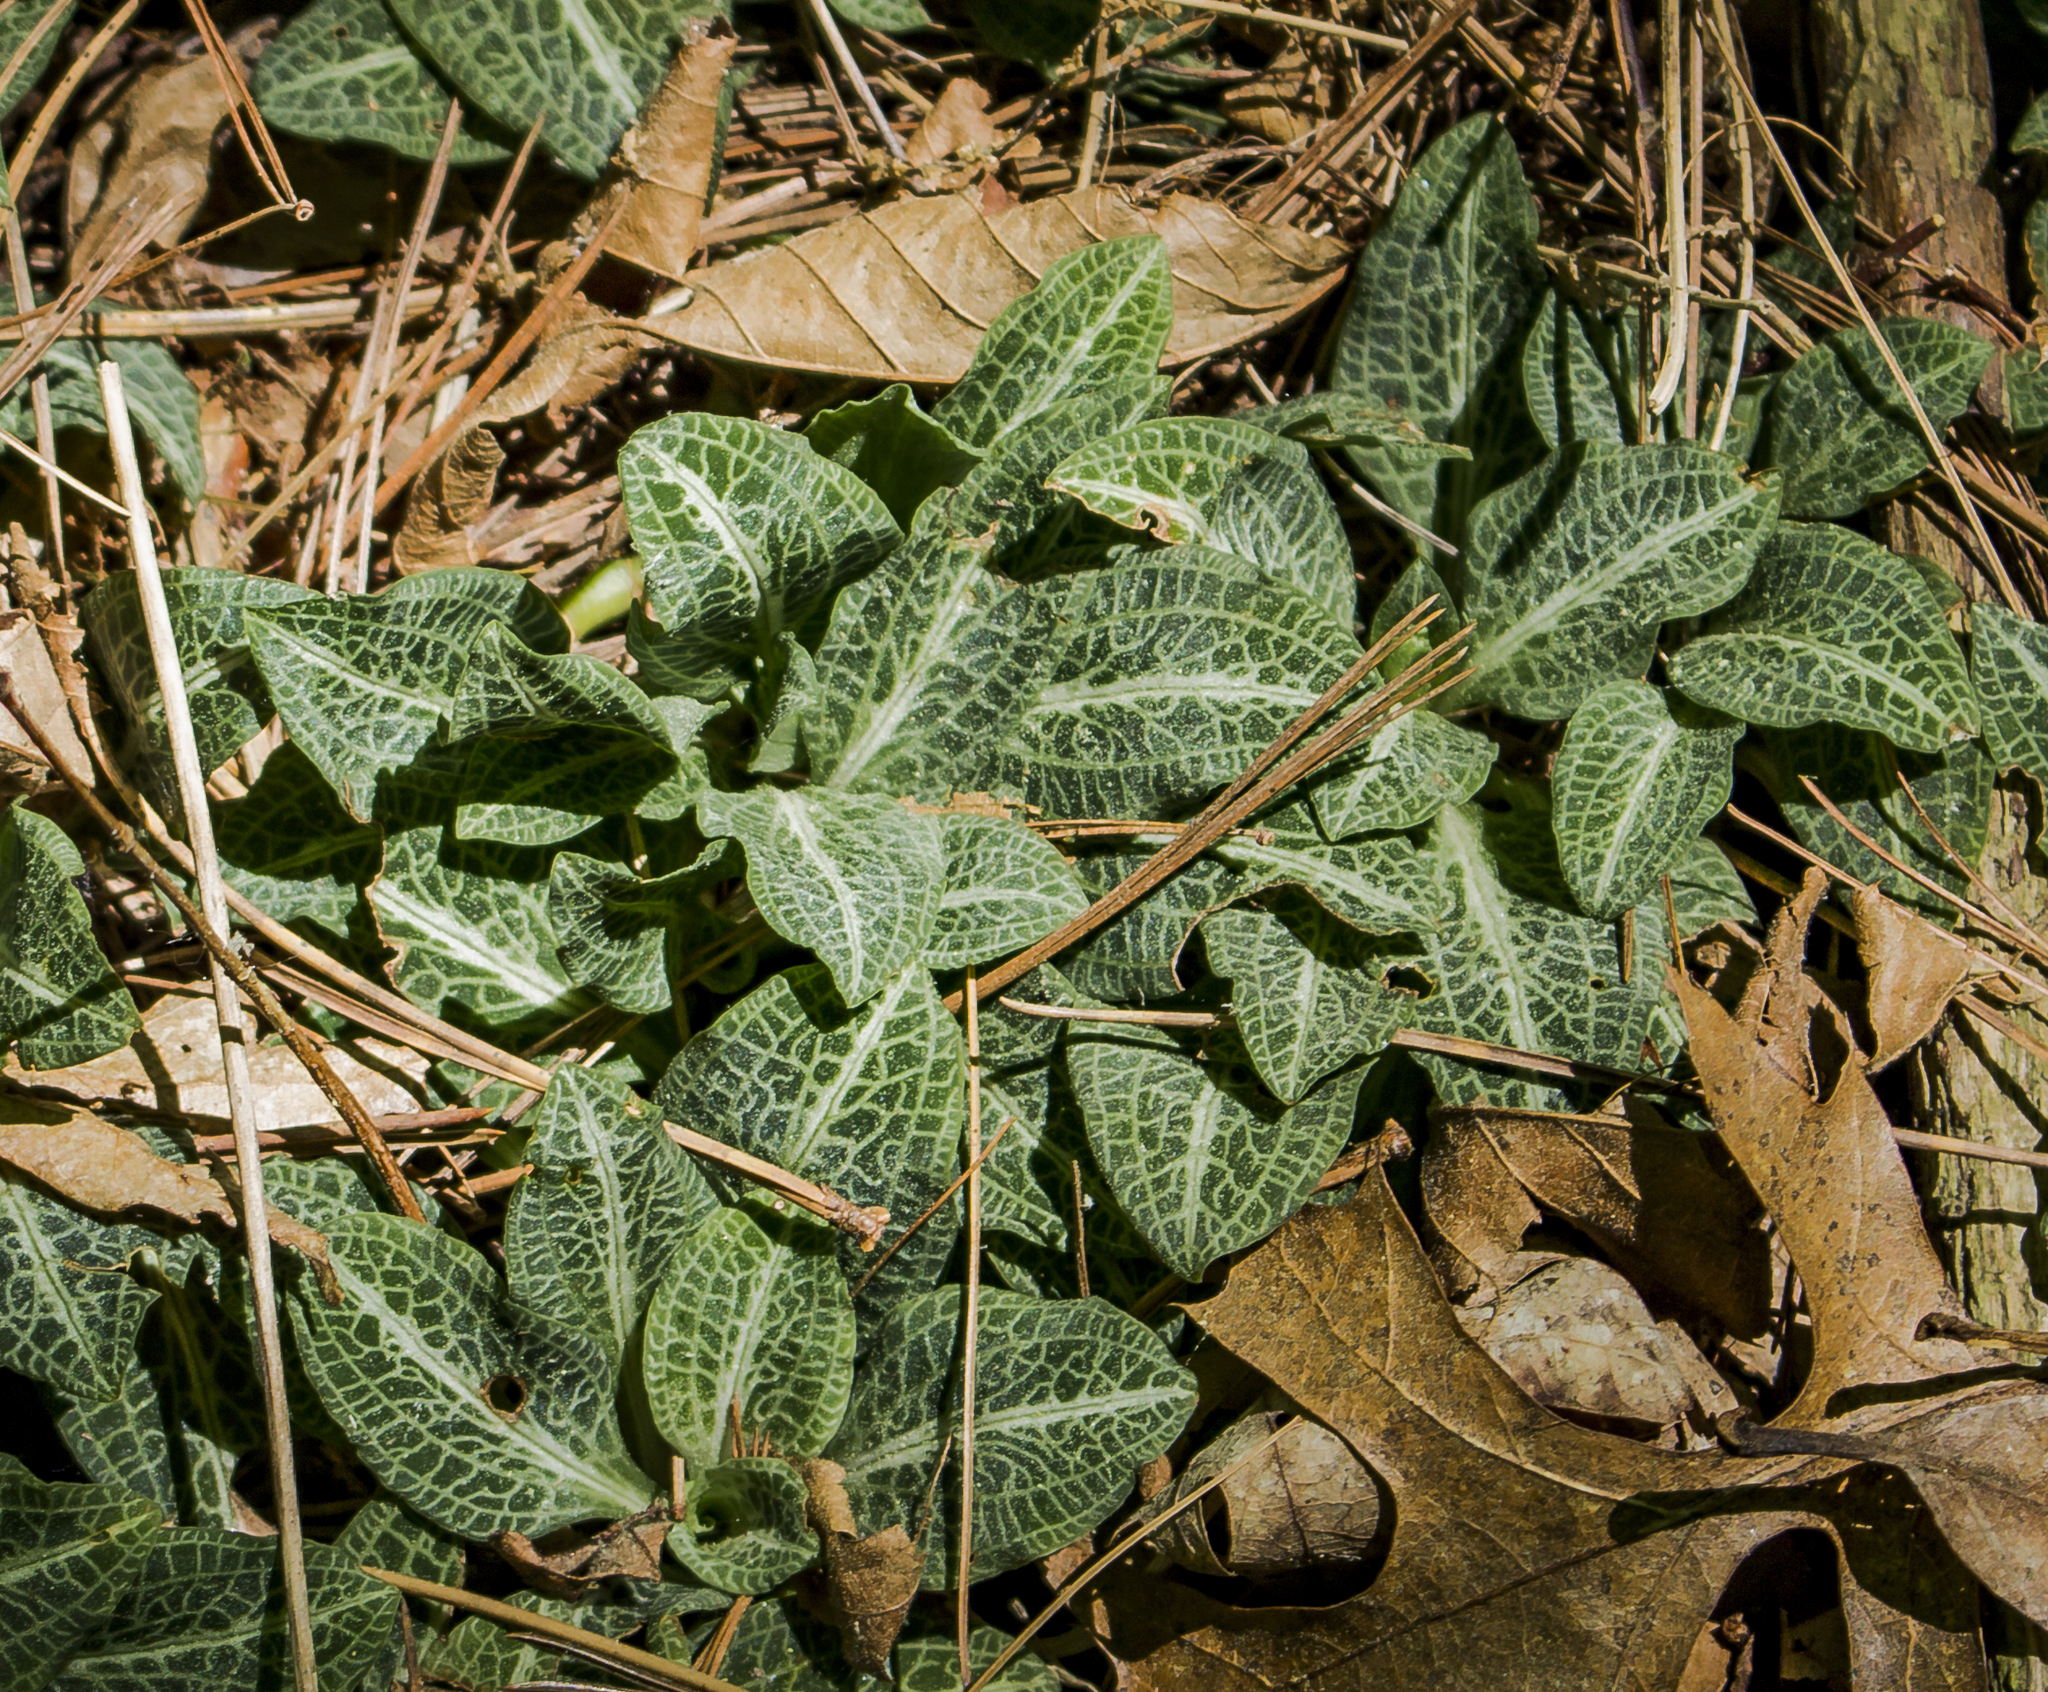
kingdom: Plantae
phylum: Tracheophyta
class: Liliopsida
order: Asparagales
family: Orchidaceae
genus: Goodyera
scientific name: Goodyera pubescens
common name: Downy rattlesnake-plantain
